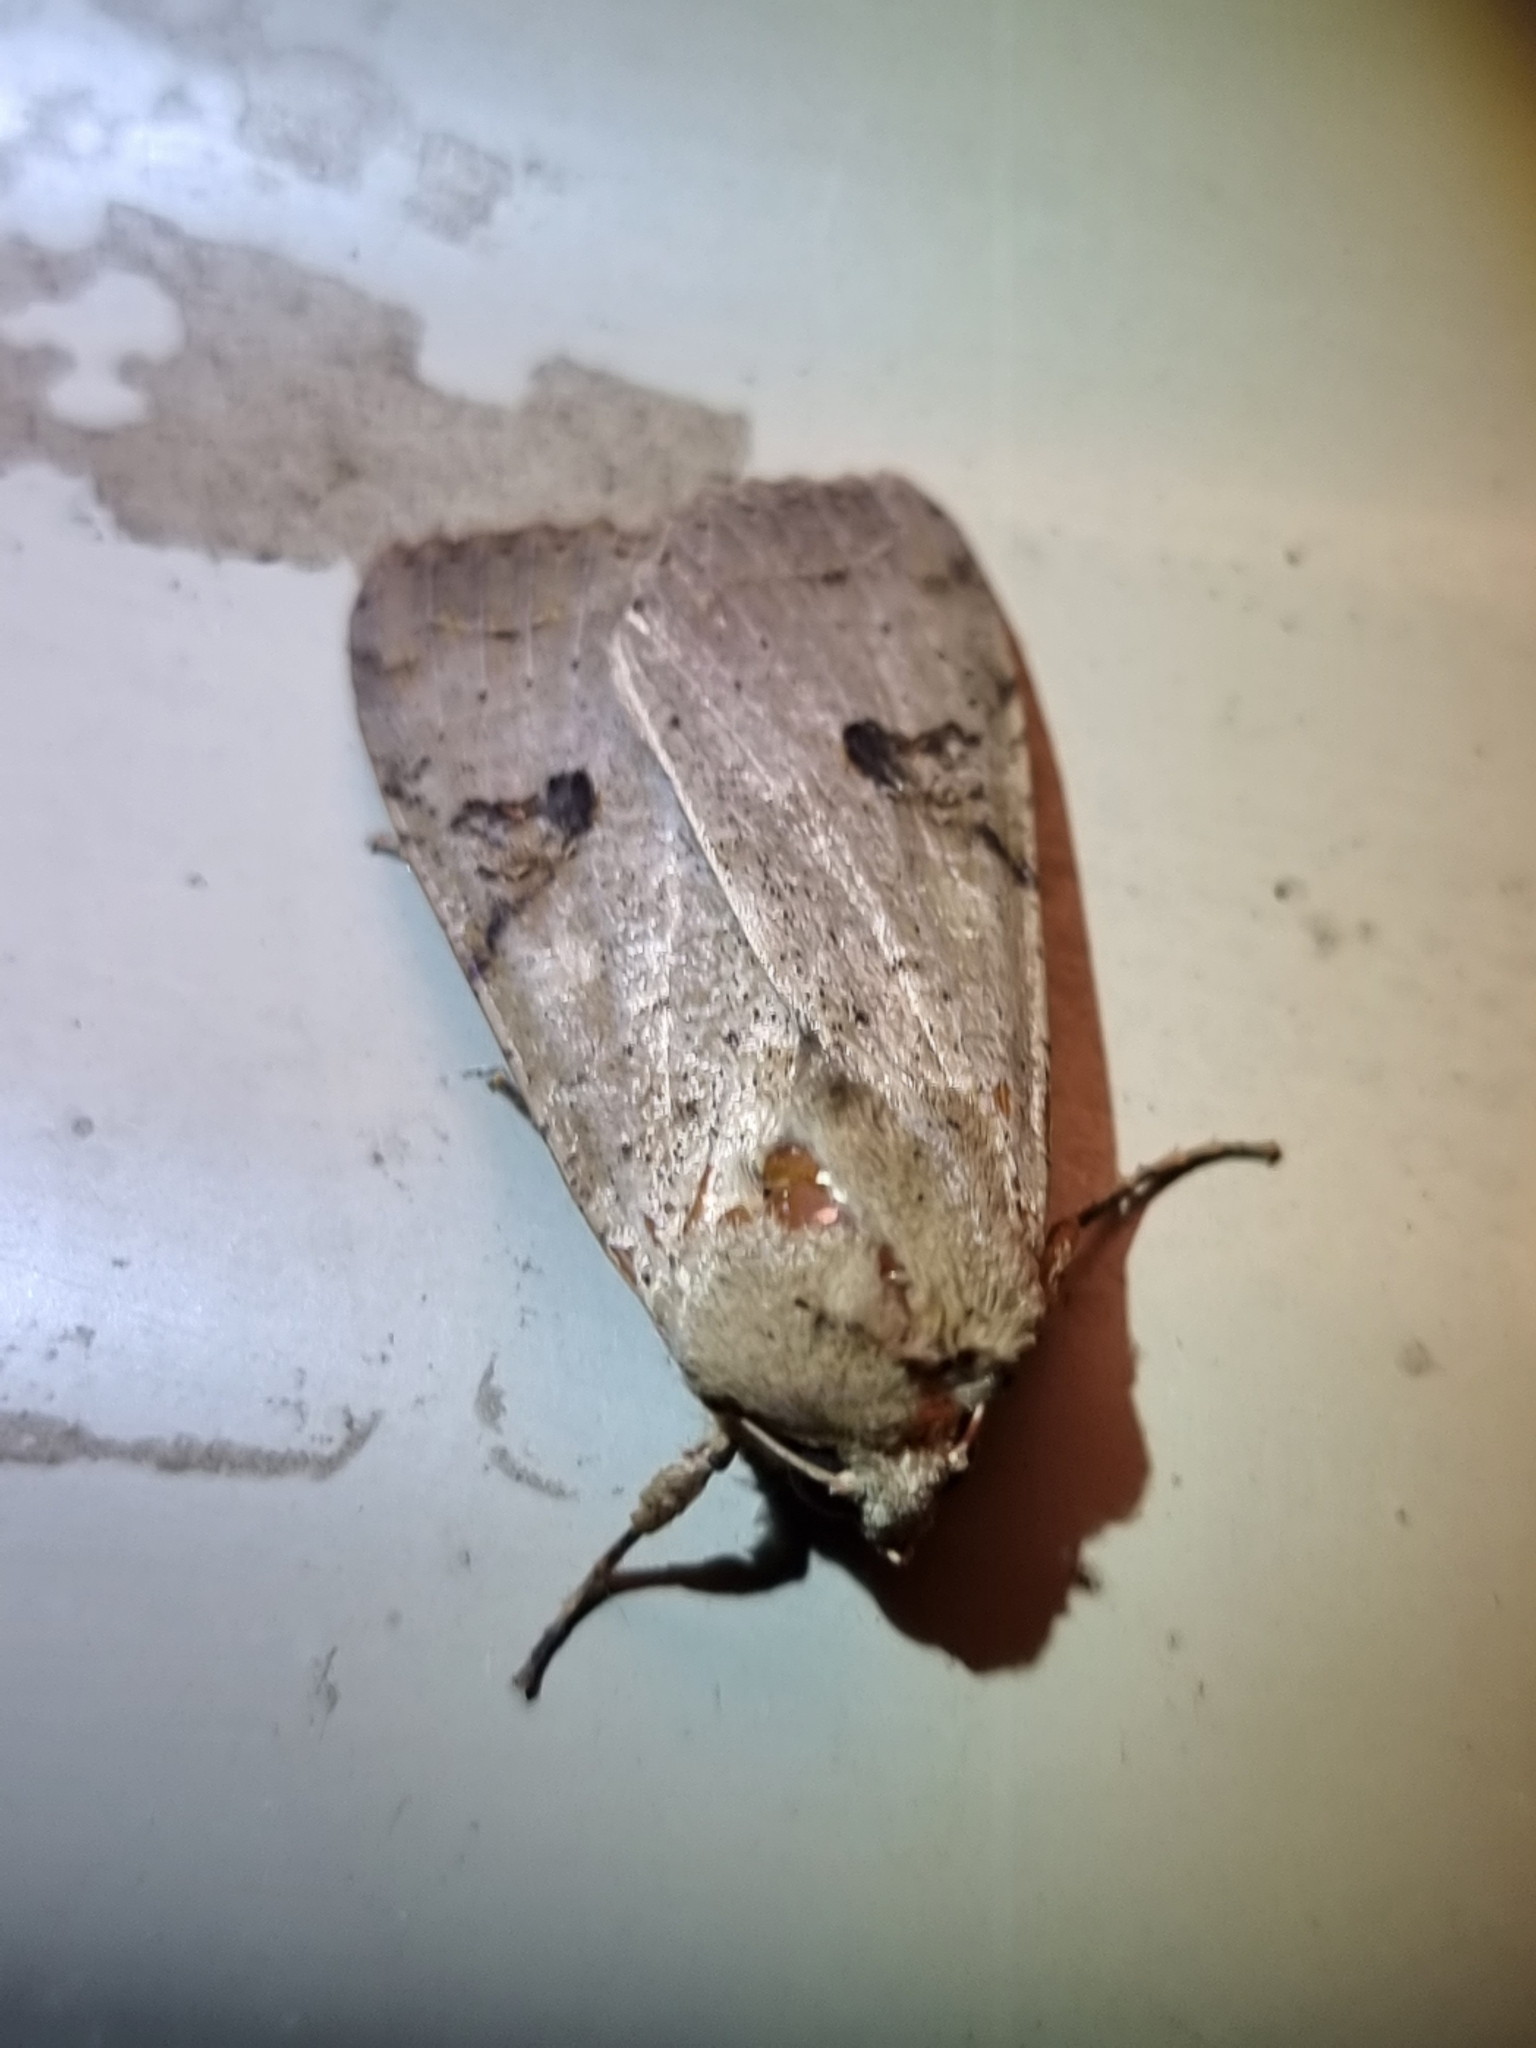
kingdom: Animalia
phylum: Arthropoda
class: Insecta
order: Lepidoptera
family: Noctuidae
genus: Tiracola
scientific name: Tiracola plagiata
